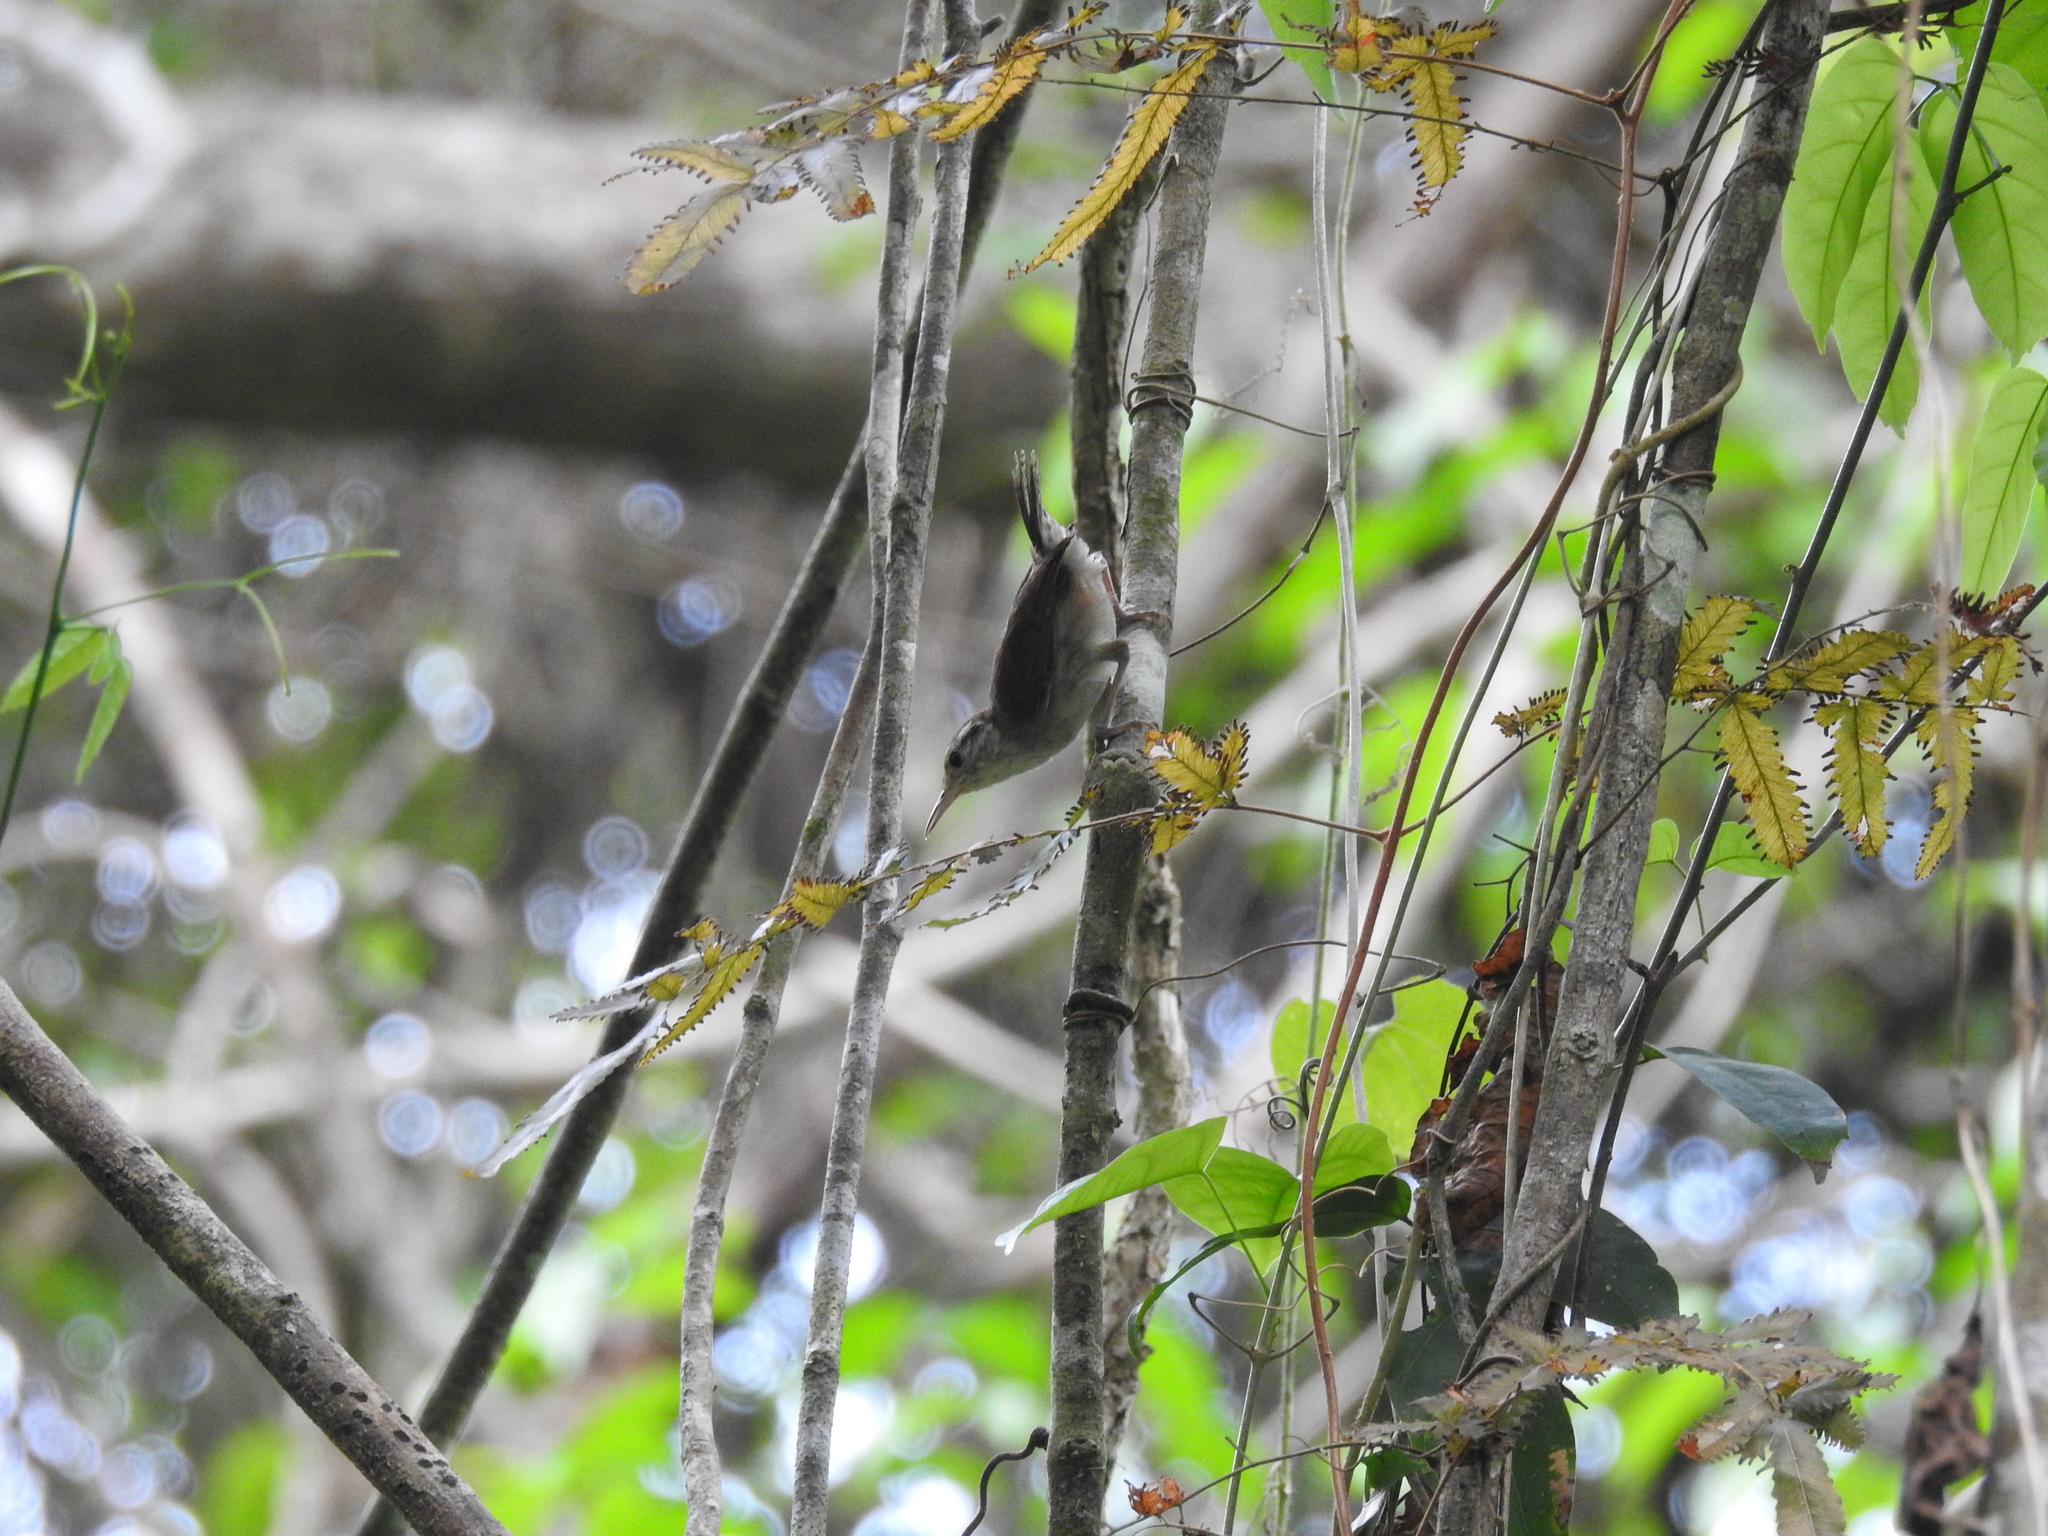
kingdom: Animalia
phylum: Chordata
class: Aves
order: Passeriformes
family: Troglodytidae
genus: Uropsila
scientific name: Uropsila leucogastra
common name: White-bellied wren
